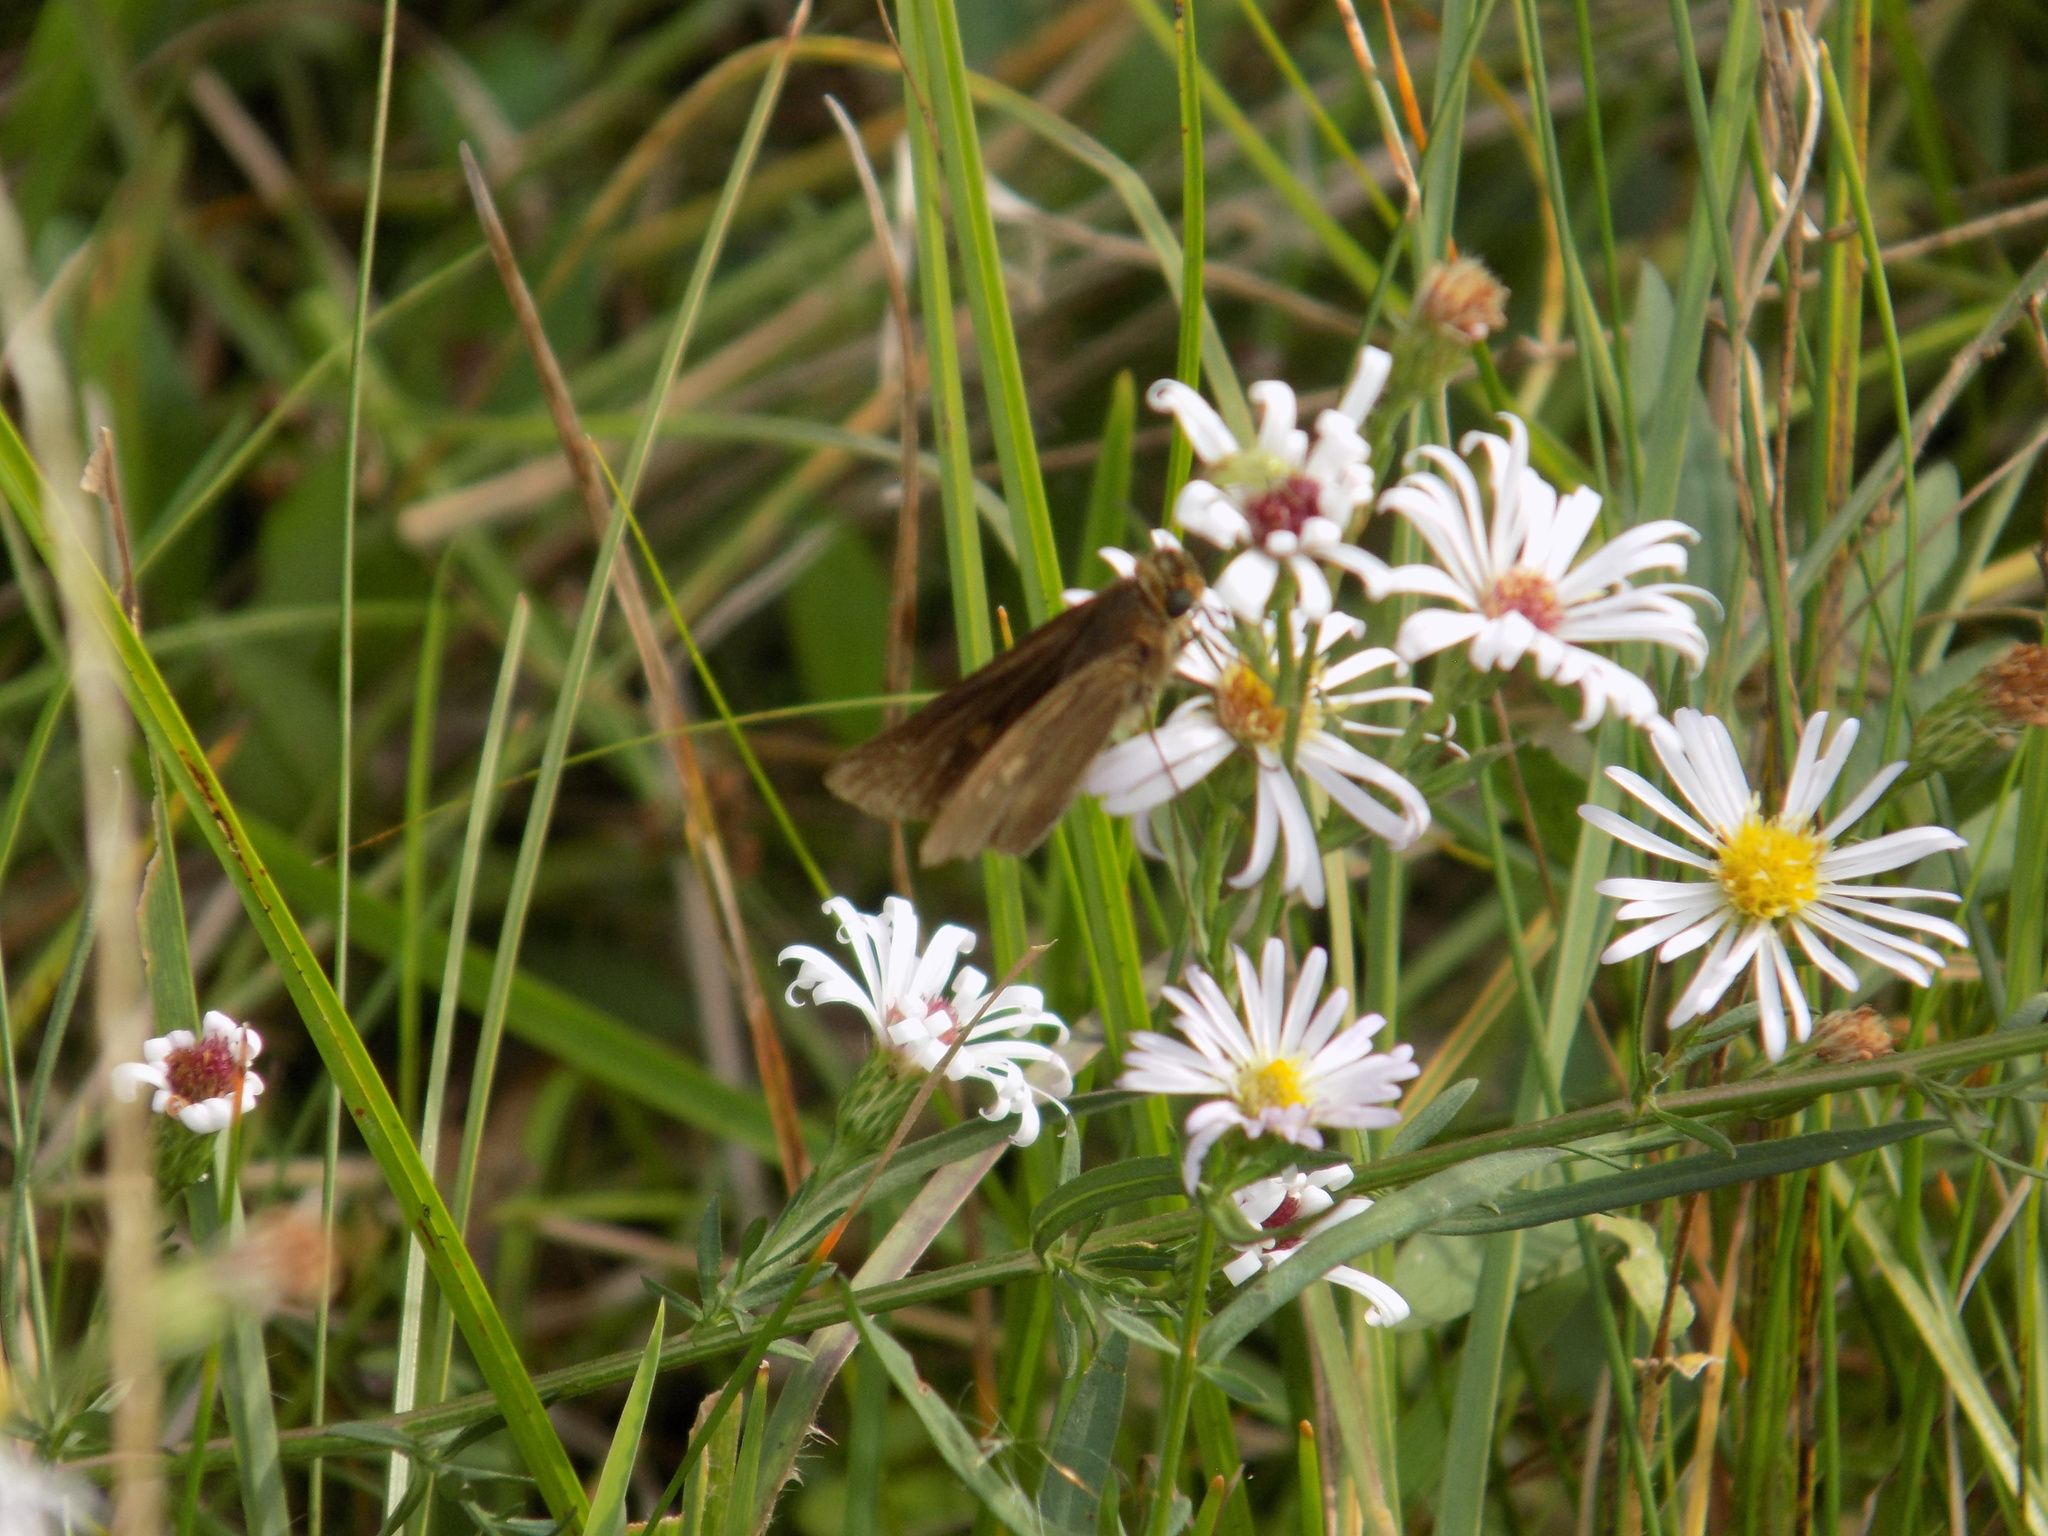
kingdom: Animalia
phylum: Arthropoda
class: Insecta
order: Lepidoptera
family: Hesperiidae
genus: Panoquina
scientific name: Panoquina ocola
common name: Ocola skipper
